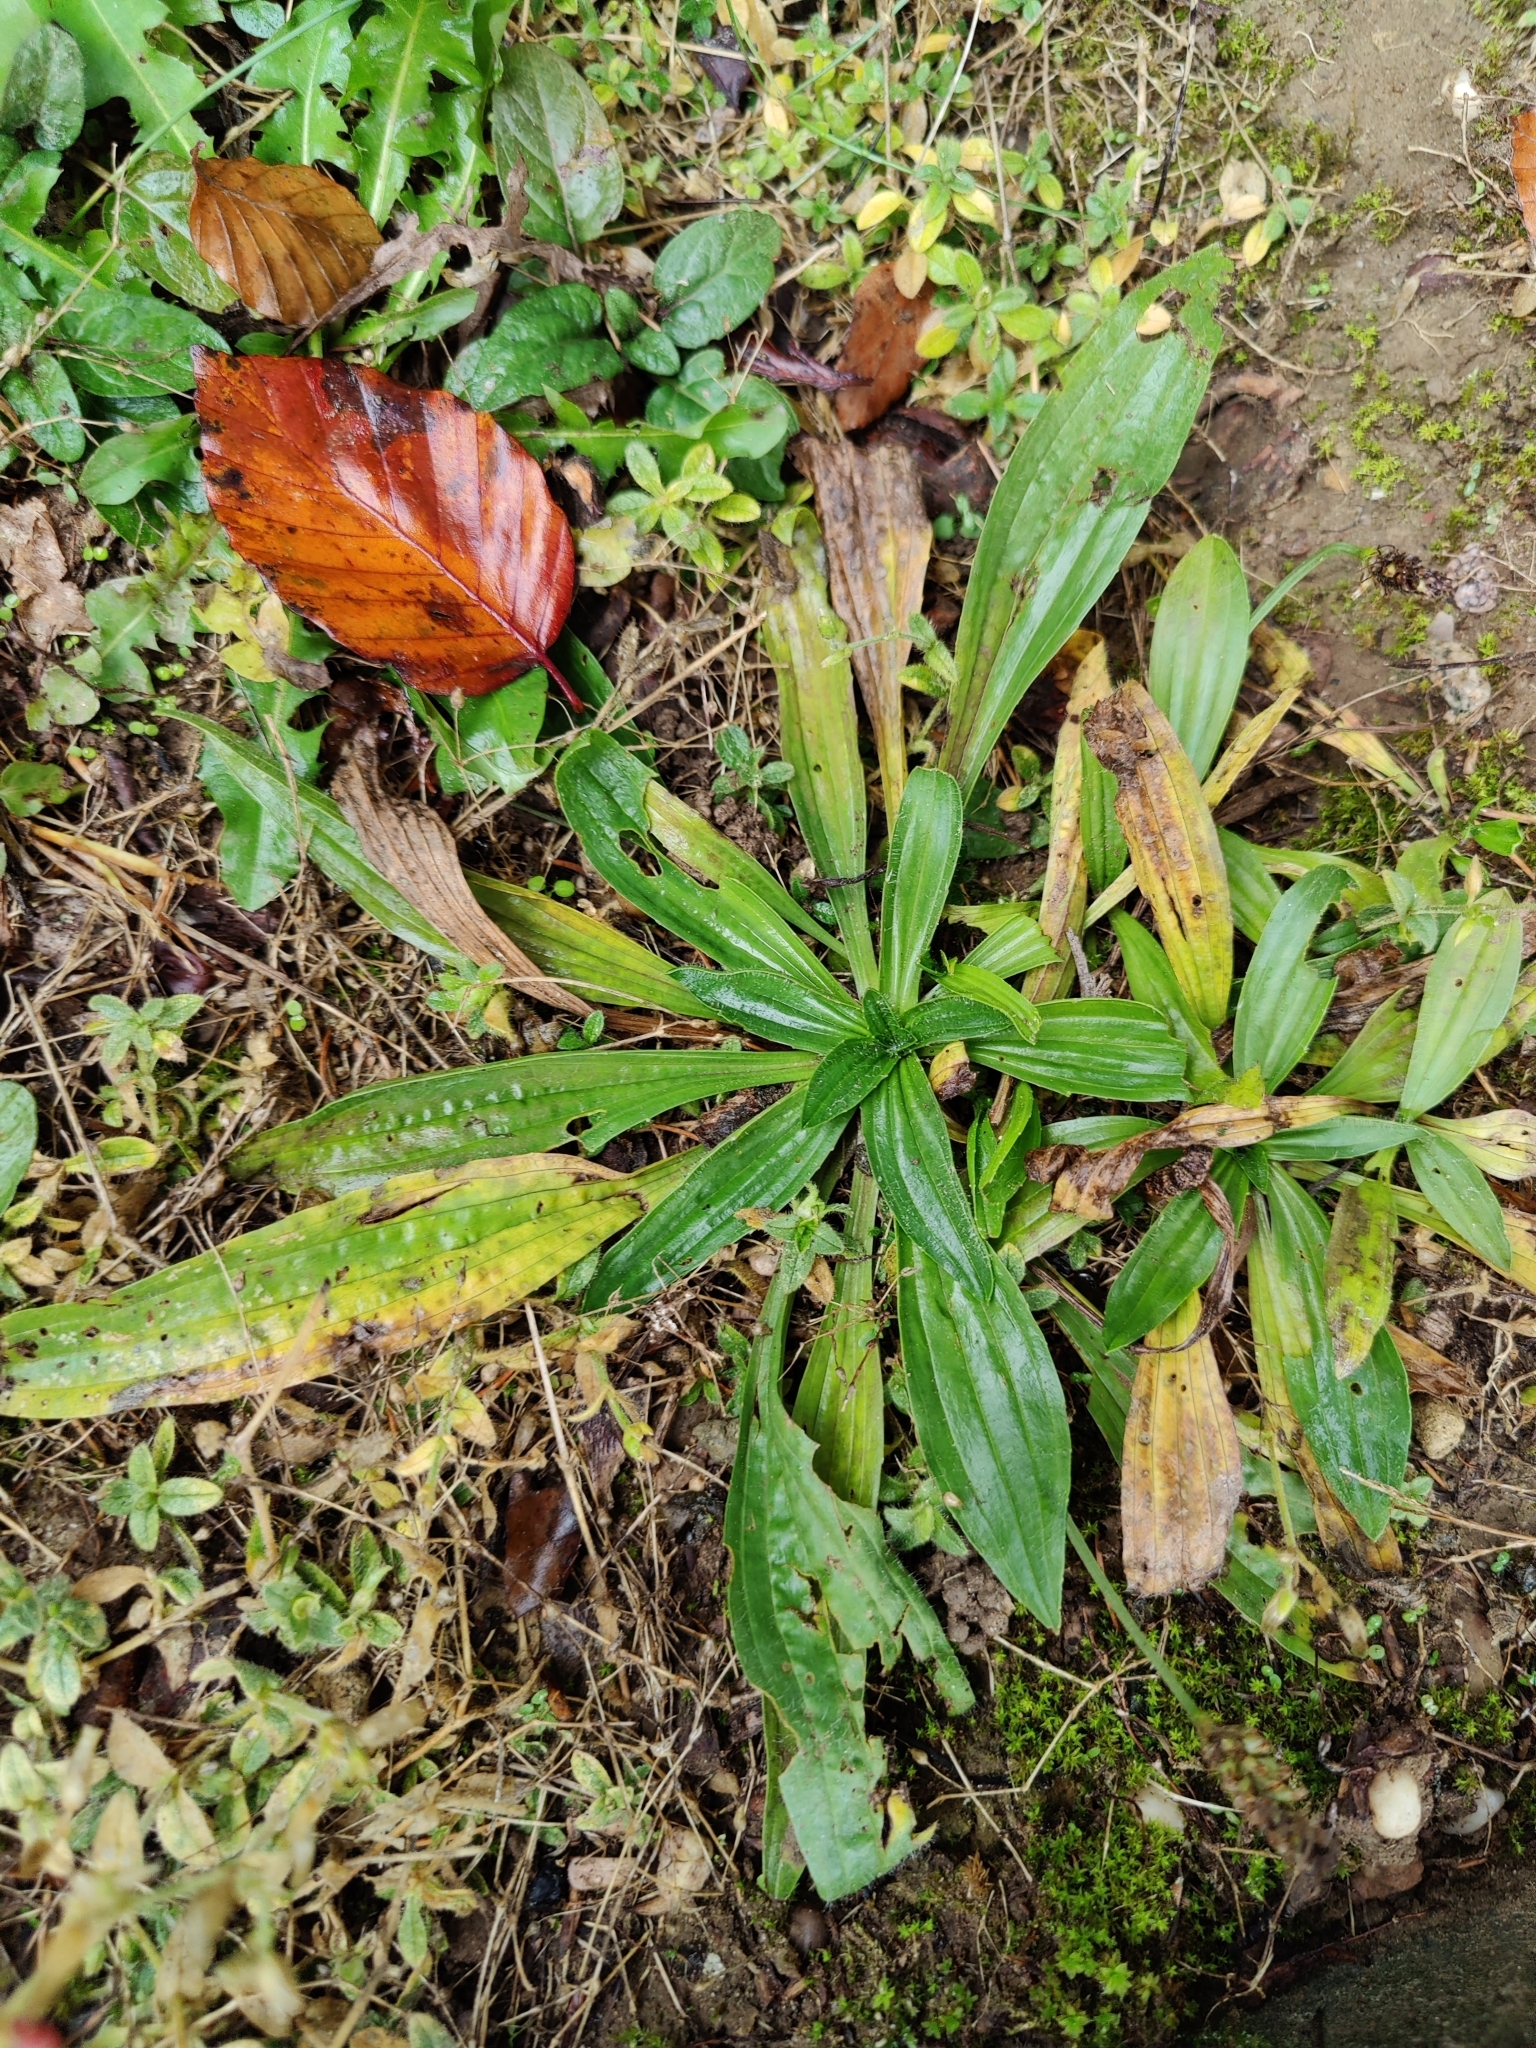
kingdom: Plantae
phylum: Tracheophyta
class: Magnoliopsida
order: Lamiales
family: Plantaginaceae
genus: Plantago
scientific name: Plantago lanceolata
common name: Ribwort plantain
